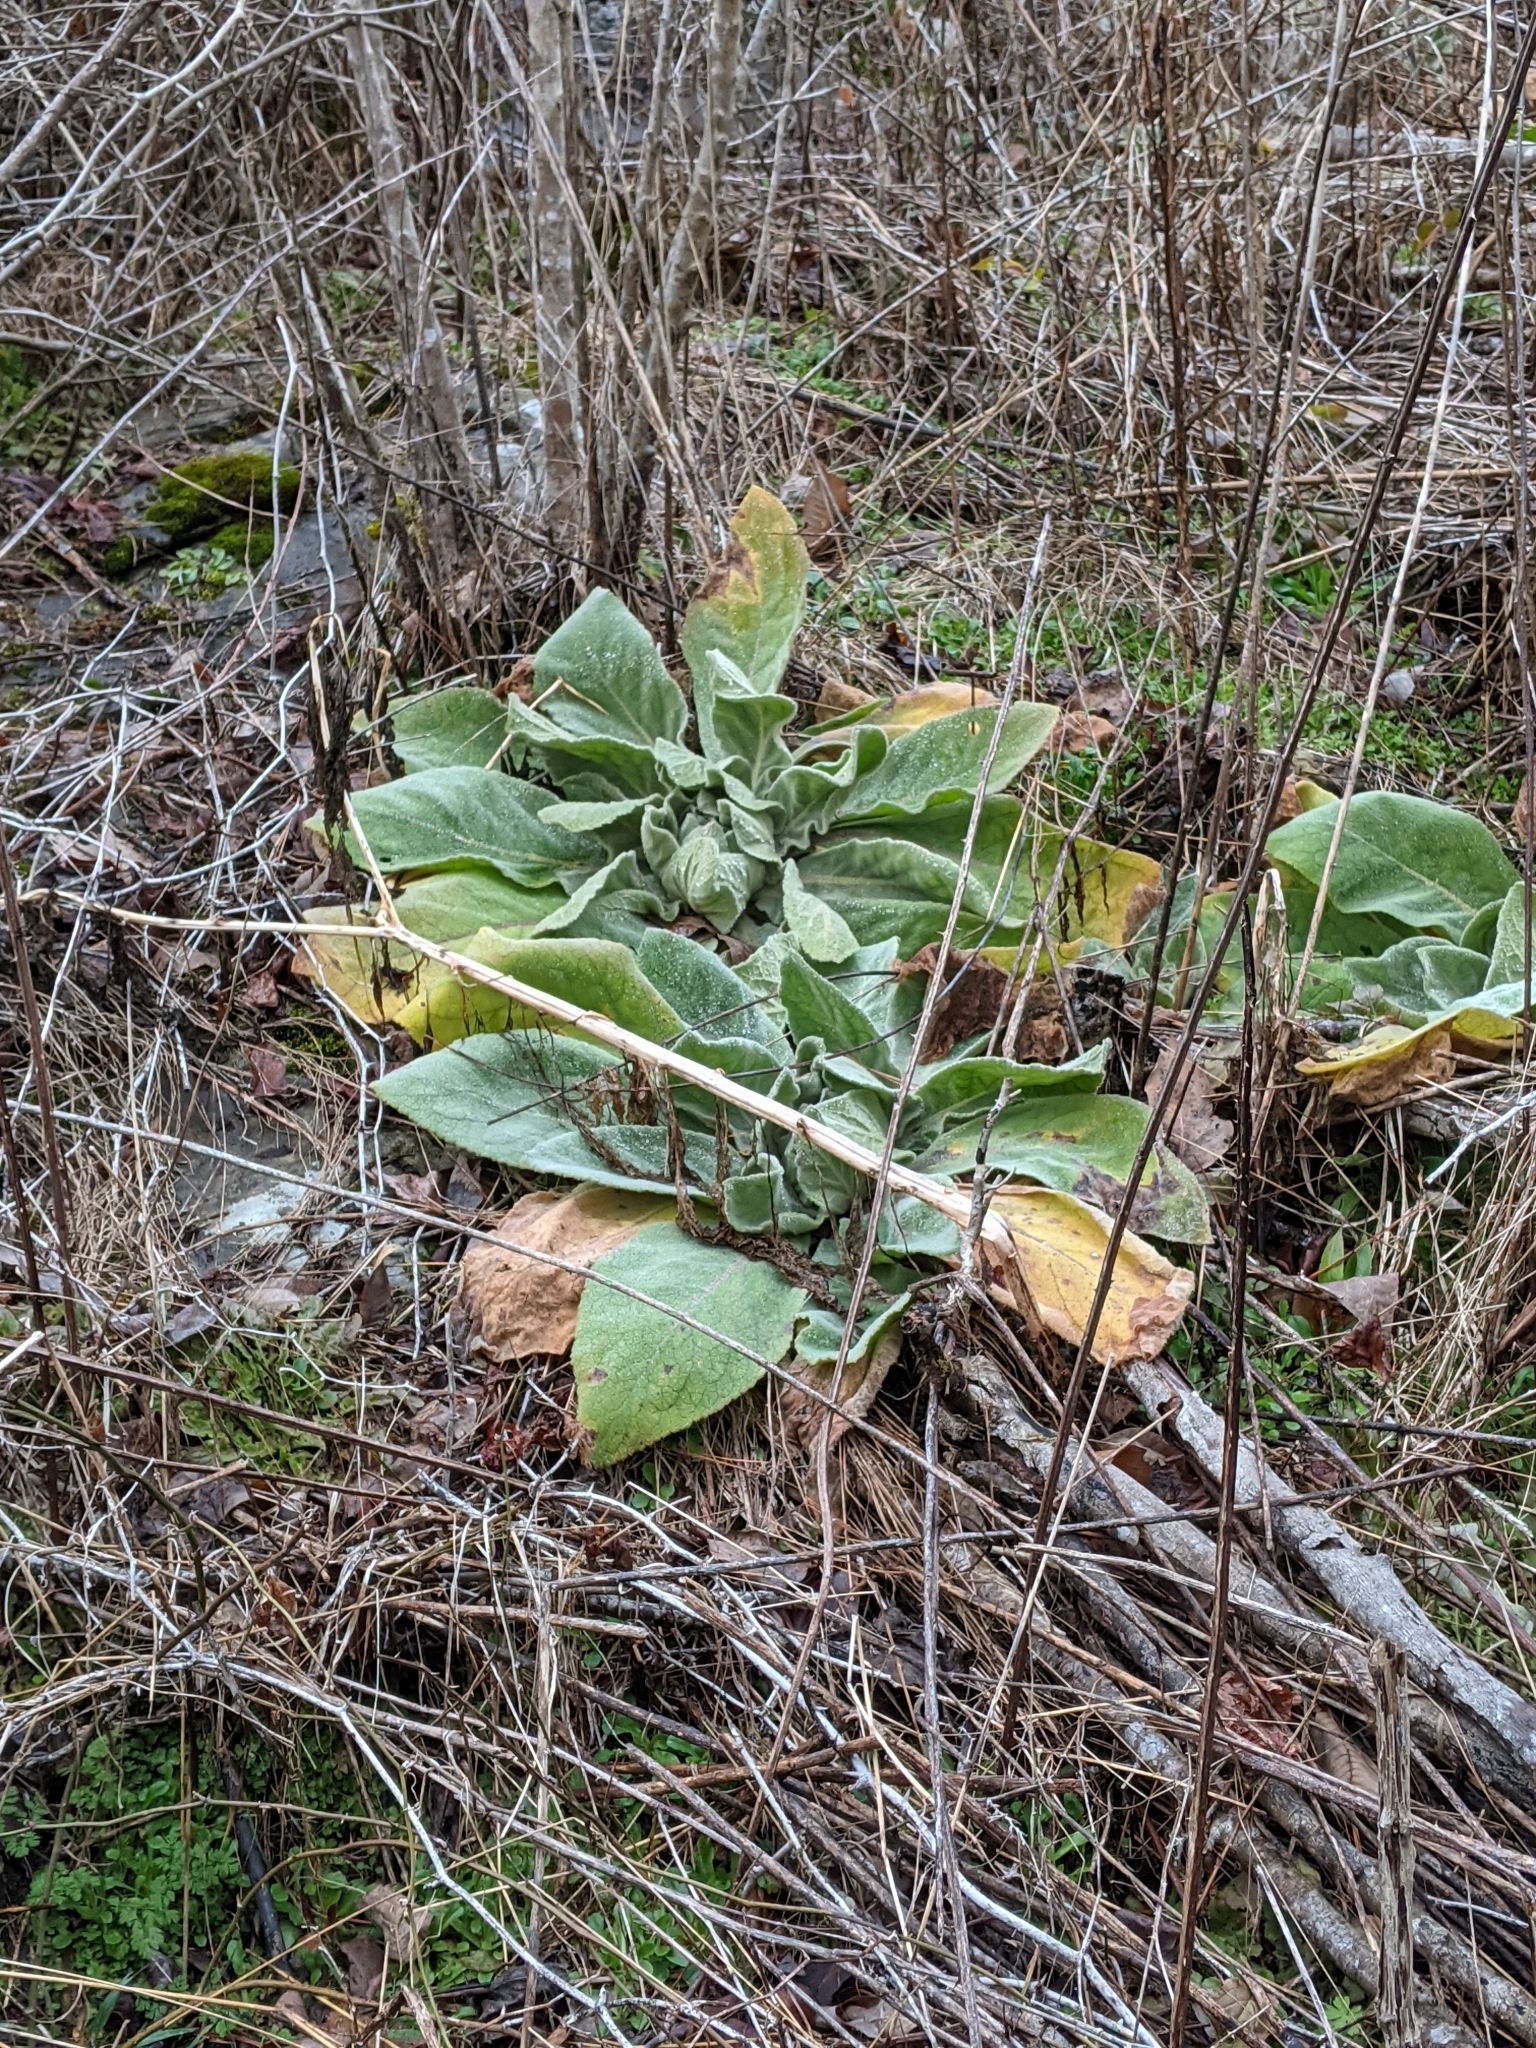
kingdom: Plantae
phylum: Tracheophyta
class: Magnoliopsida
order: Lamiales
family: Scrophulariaceae
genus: Verbascum
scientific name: Verbascum thapsus
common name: Common mullein
